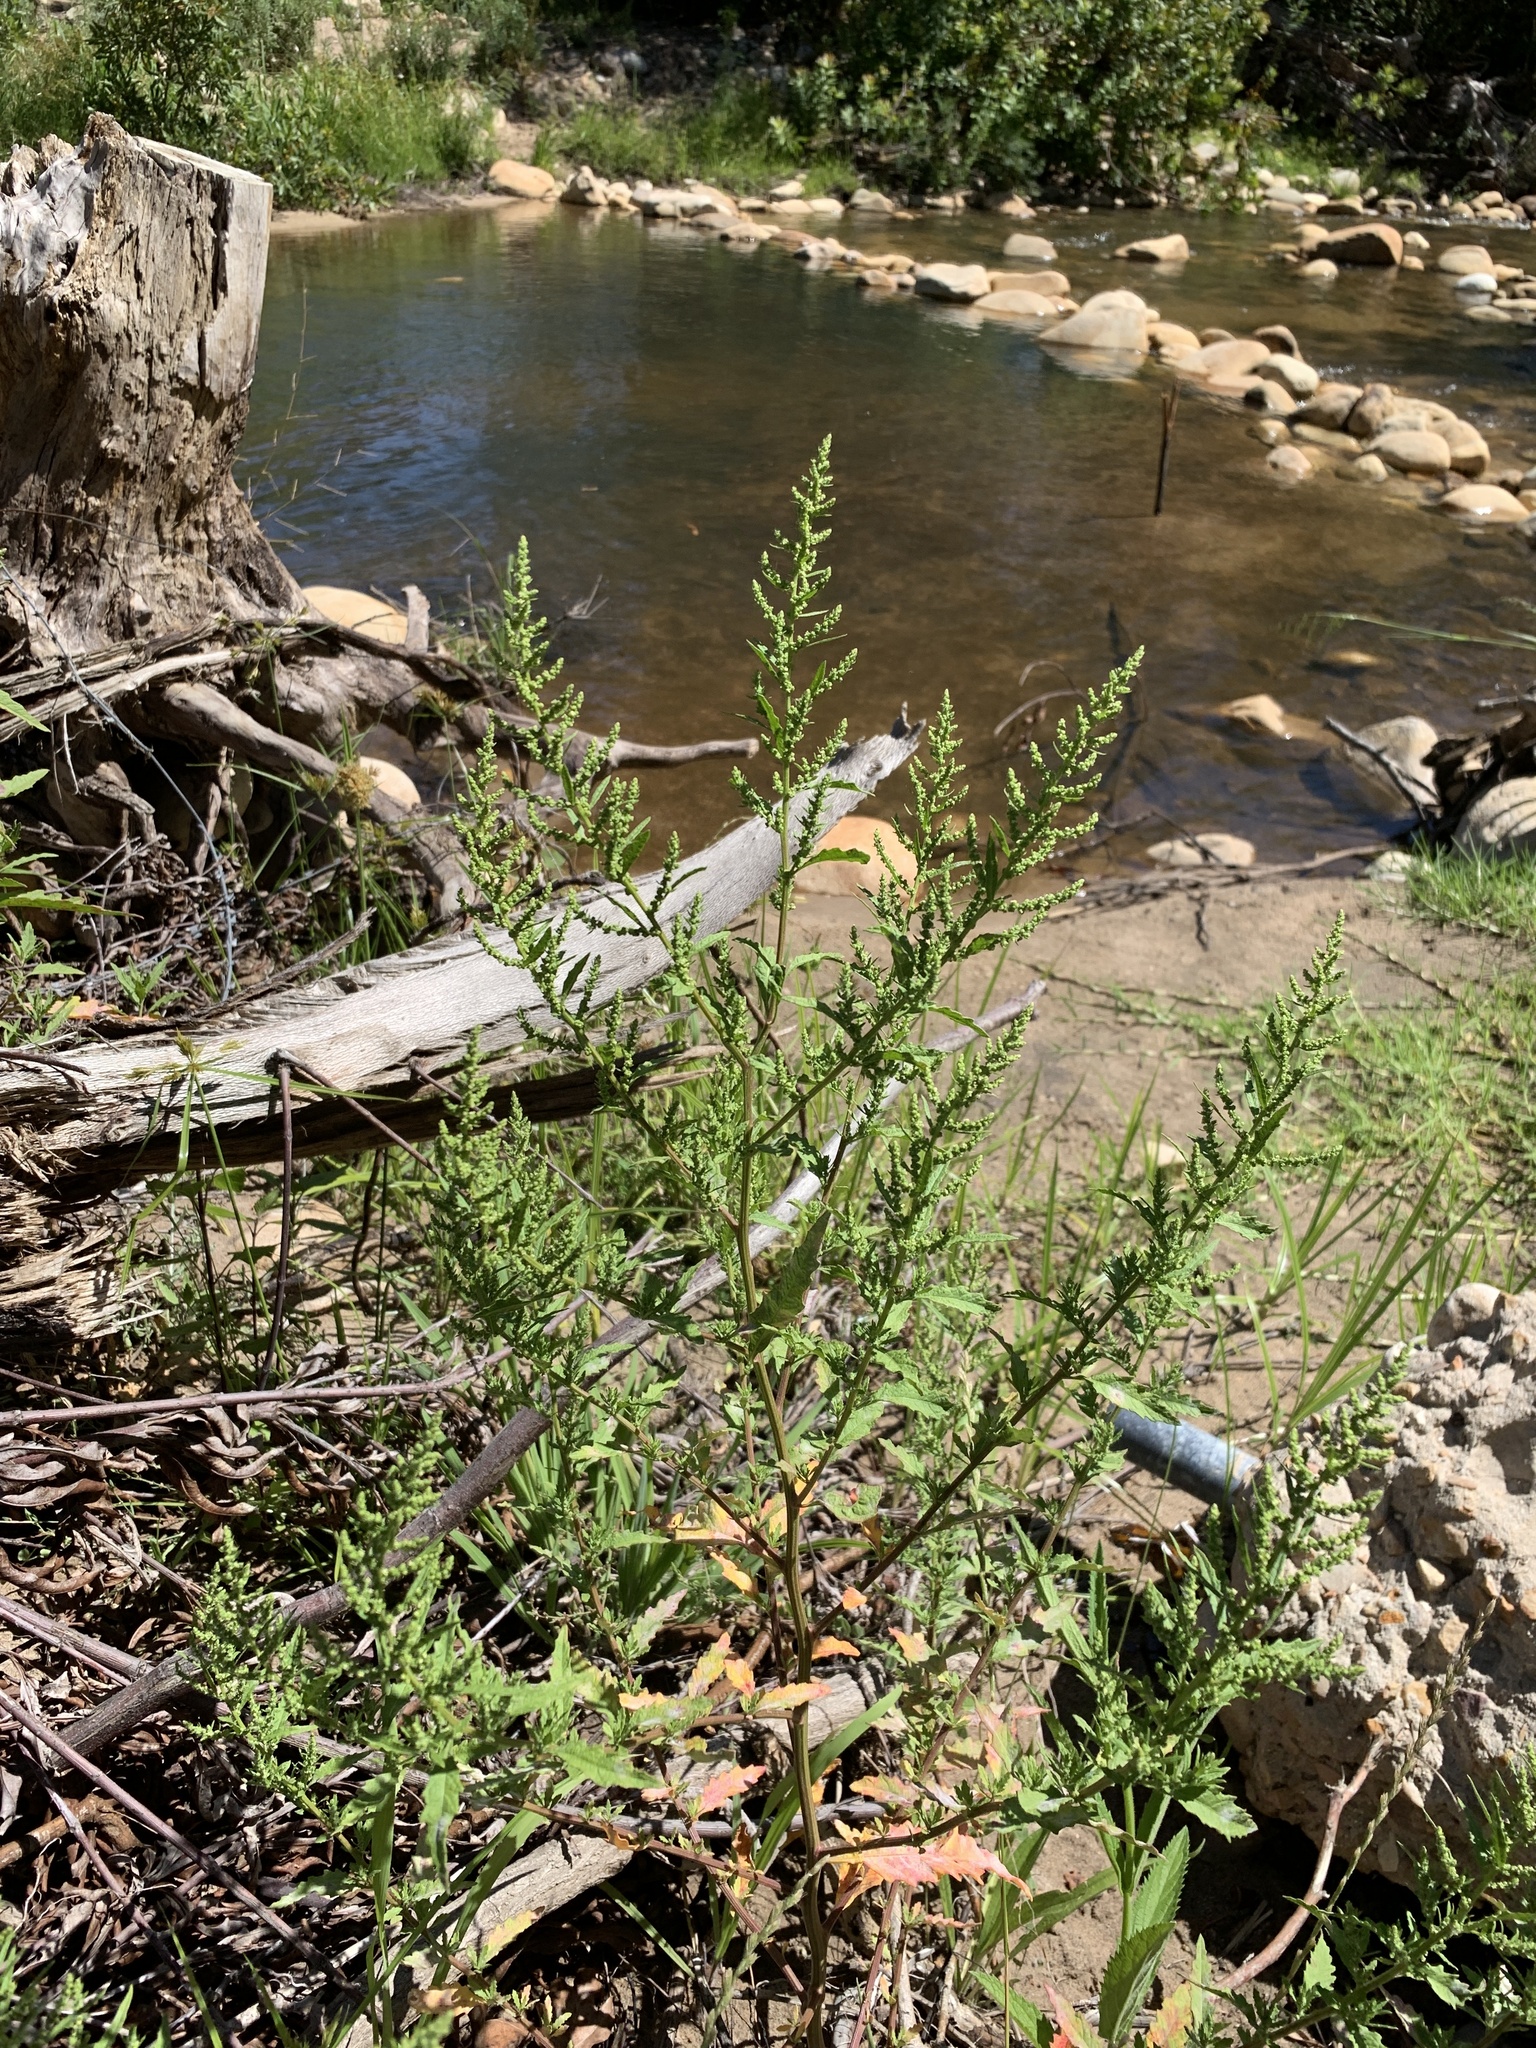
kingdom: Plantae
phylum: Tracheophyta
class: Magnoliopsida
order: Caryophyllales
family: Amaranthaceae
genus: Dysphania
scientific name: Dysphania ambrosioides
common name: Wormseed
